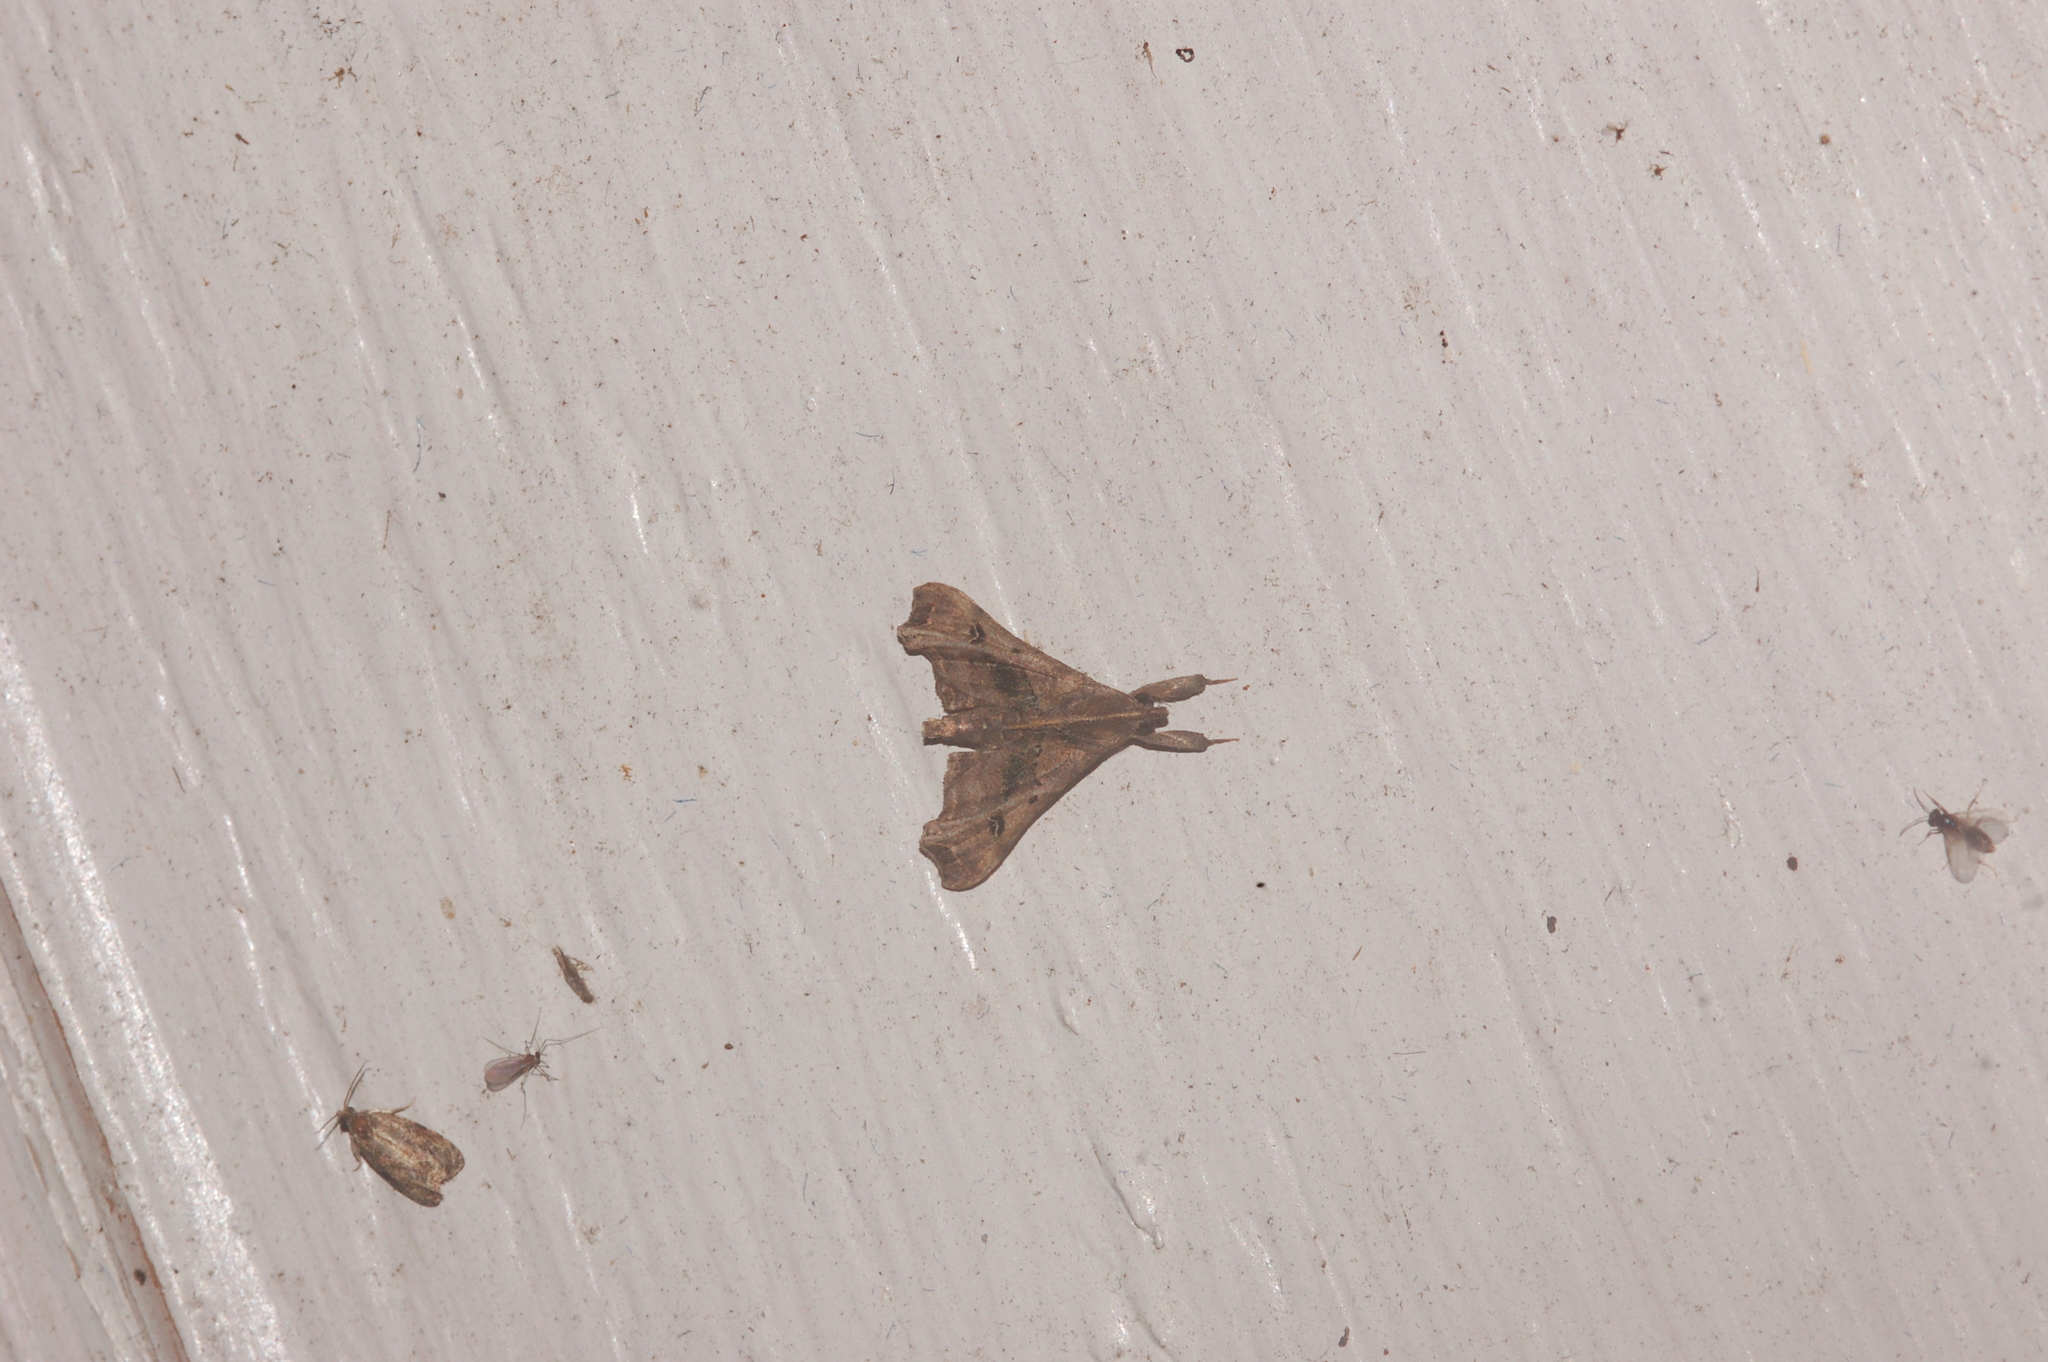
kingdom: Animalia
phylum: Arthropoda
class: Insecta
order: Lepidoptera
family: Erebidae
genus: Palthis
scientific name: Palthis asopialis
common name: Faint-spotted palthis moth
